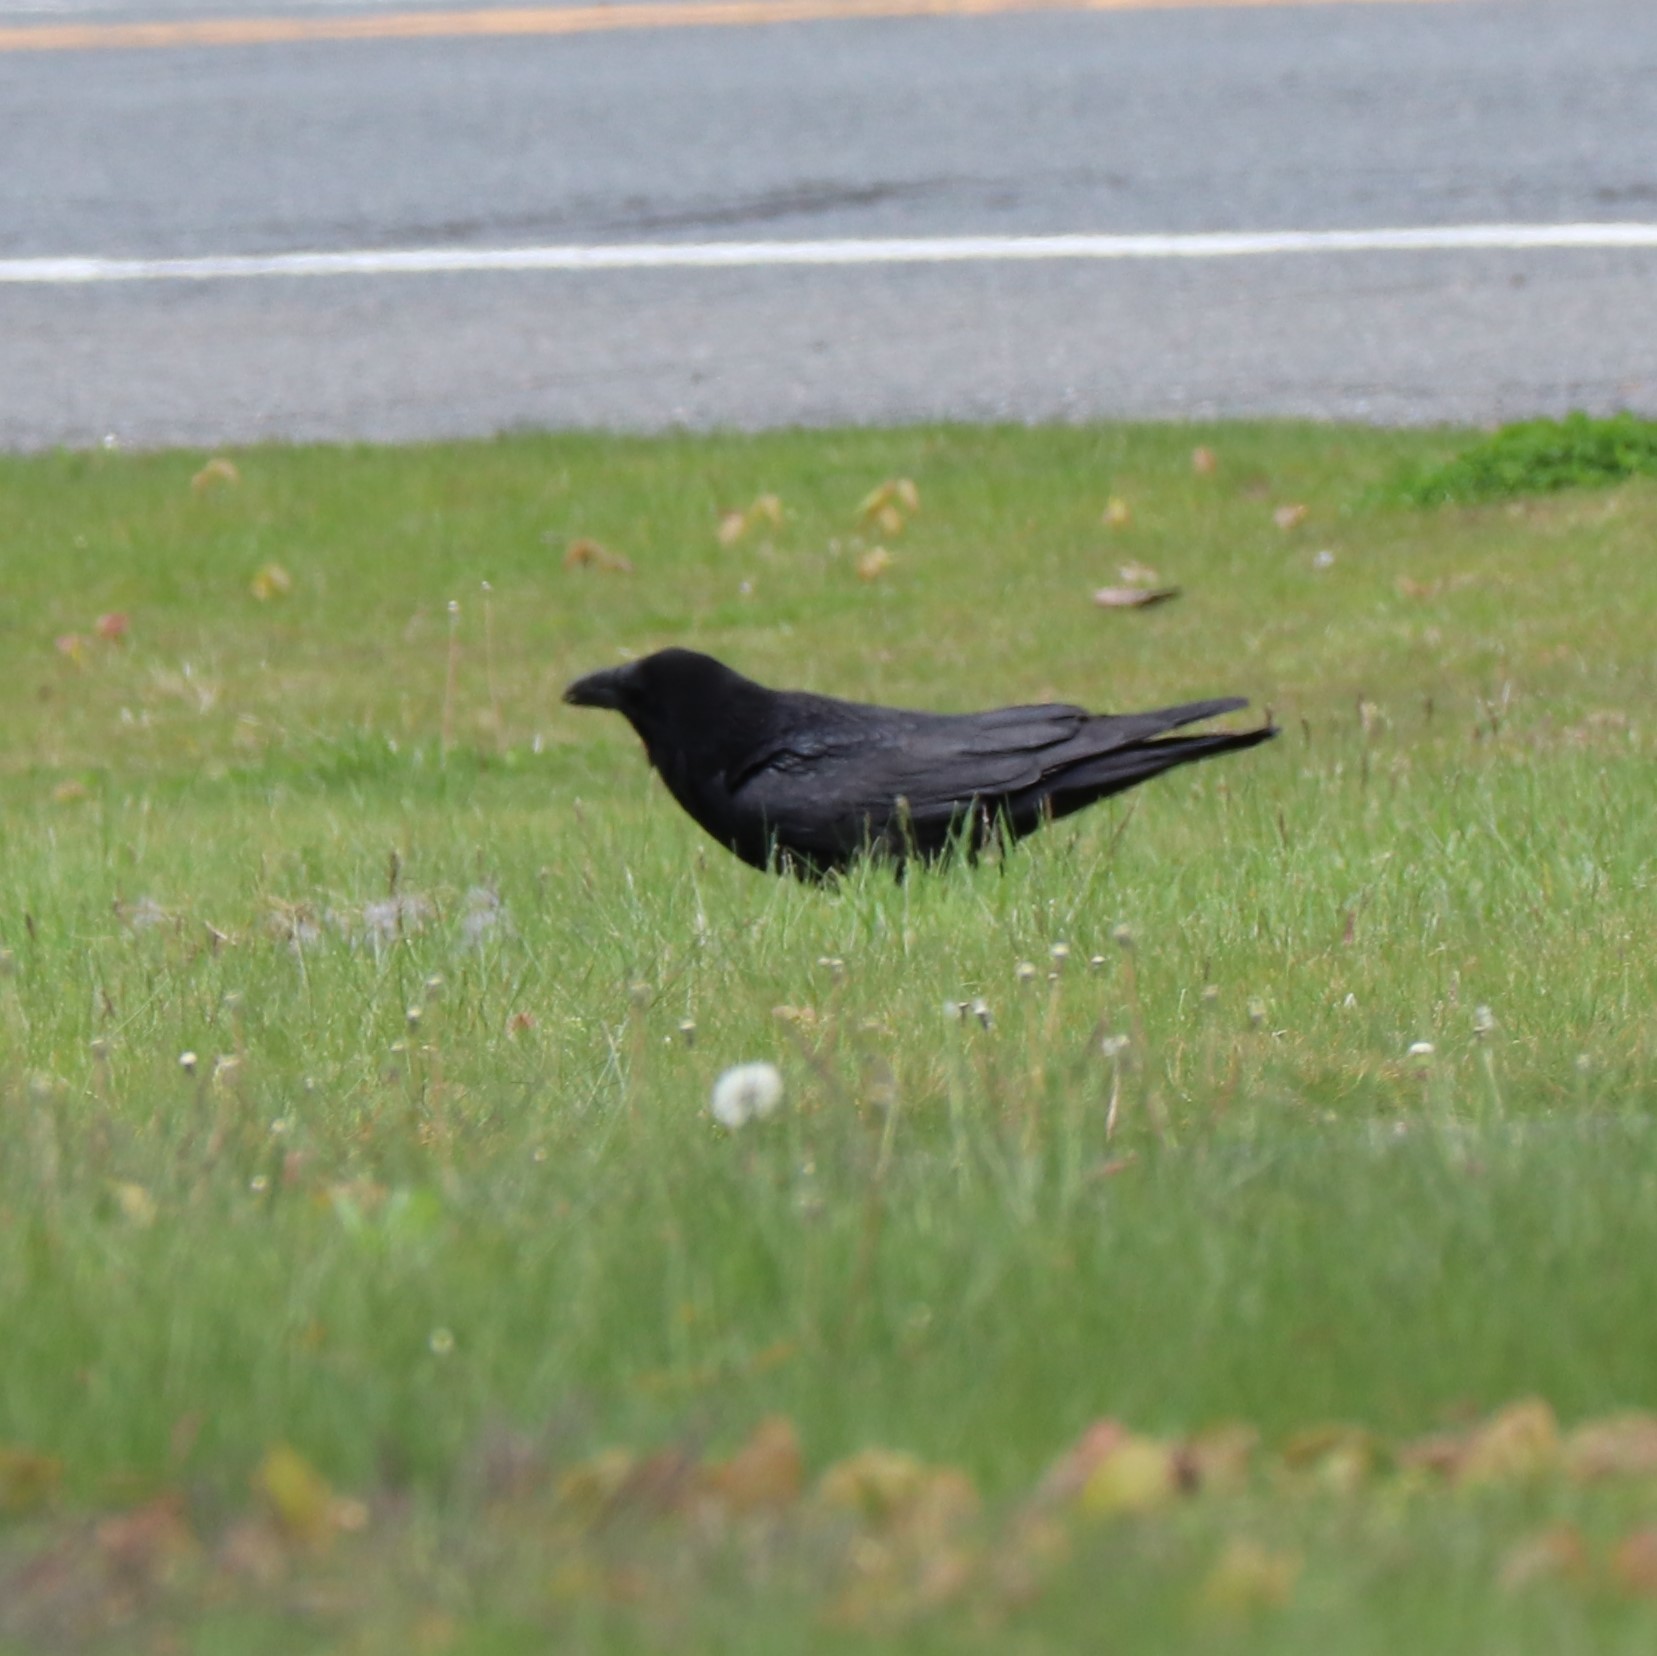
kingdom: Animalia
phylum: Chordata
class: Aves
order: Passeriformes
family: Corvidae
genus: Corvus
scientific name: Corvus corax
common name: Common raven
